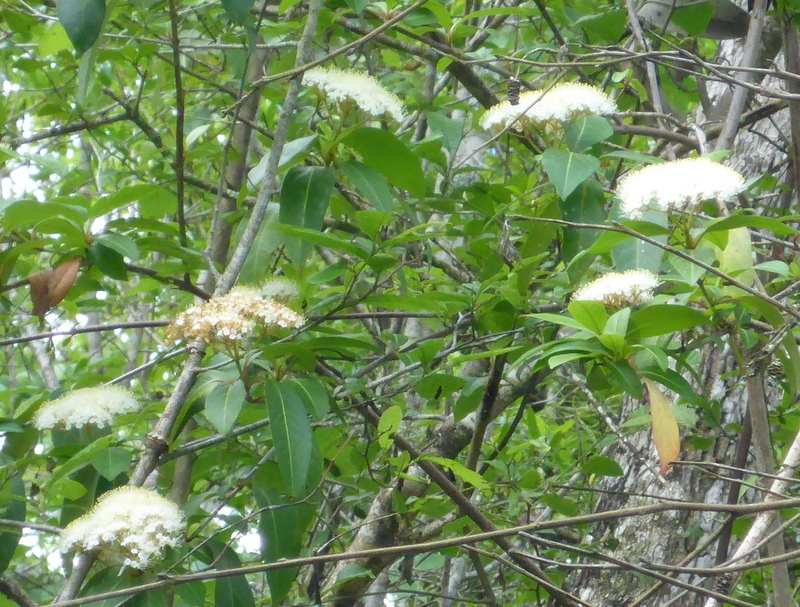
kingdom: Plantae
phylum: Tracheophyta
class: Magnoliopsida
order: Dipsacales
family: Viburnaceae
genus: Viburnum
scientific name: Viburnum nudum
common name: Possum haw
